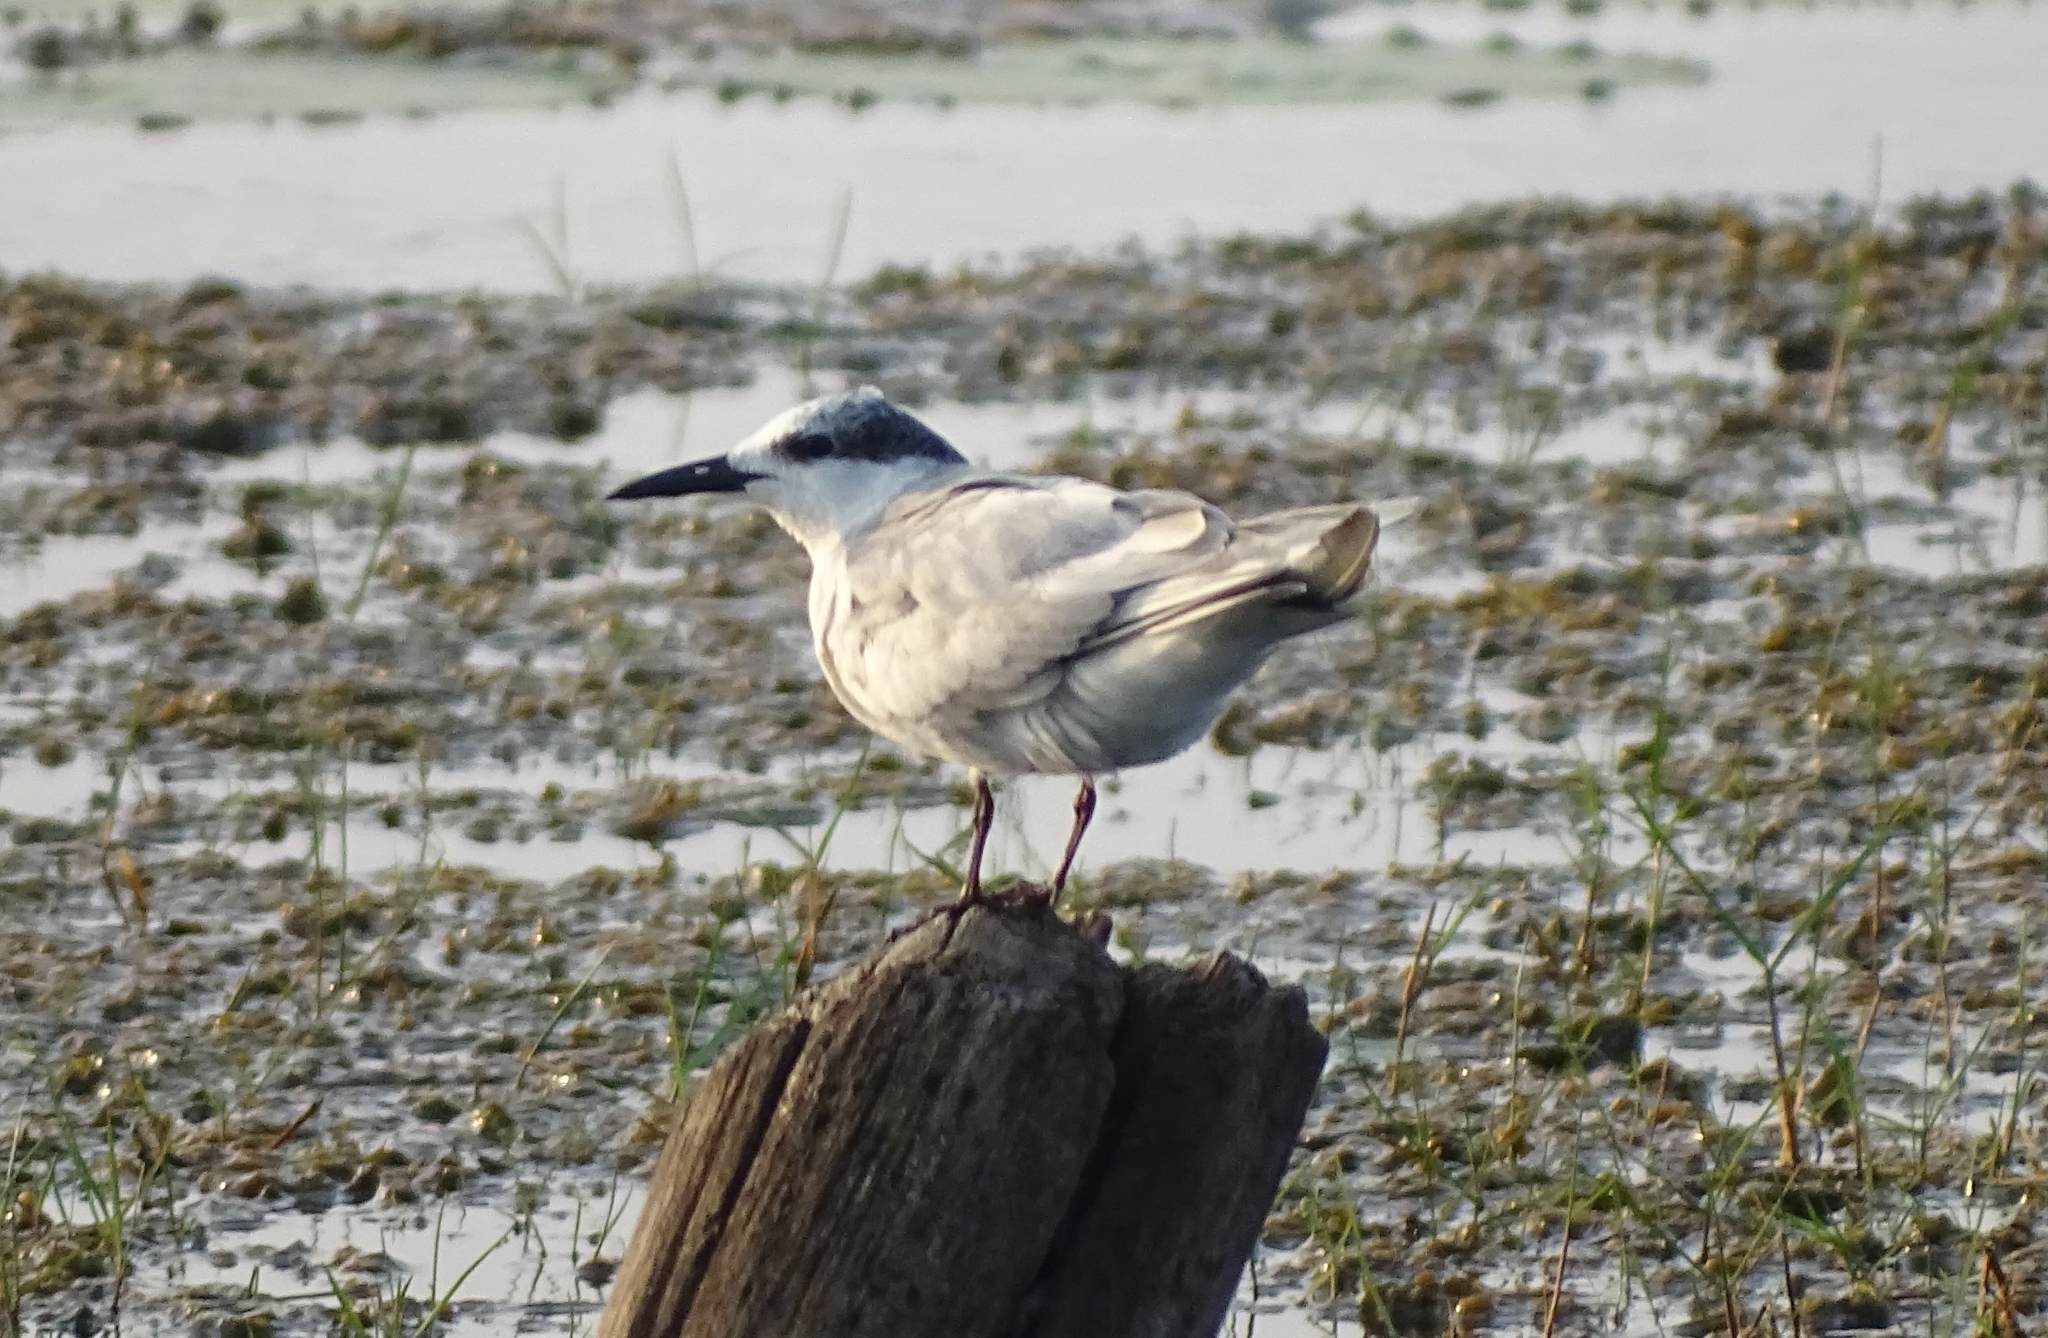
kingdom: Animalia
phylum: Chordata
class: Aves
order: Charadriiformes
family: Laridae
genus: Chlidonias
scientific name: Chlidonias hybrida
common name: Whiskered tern
